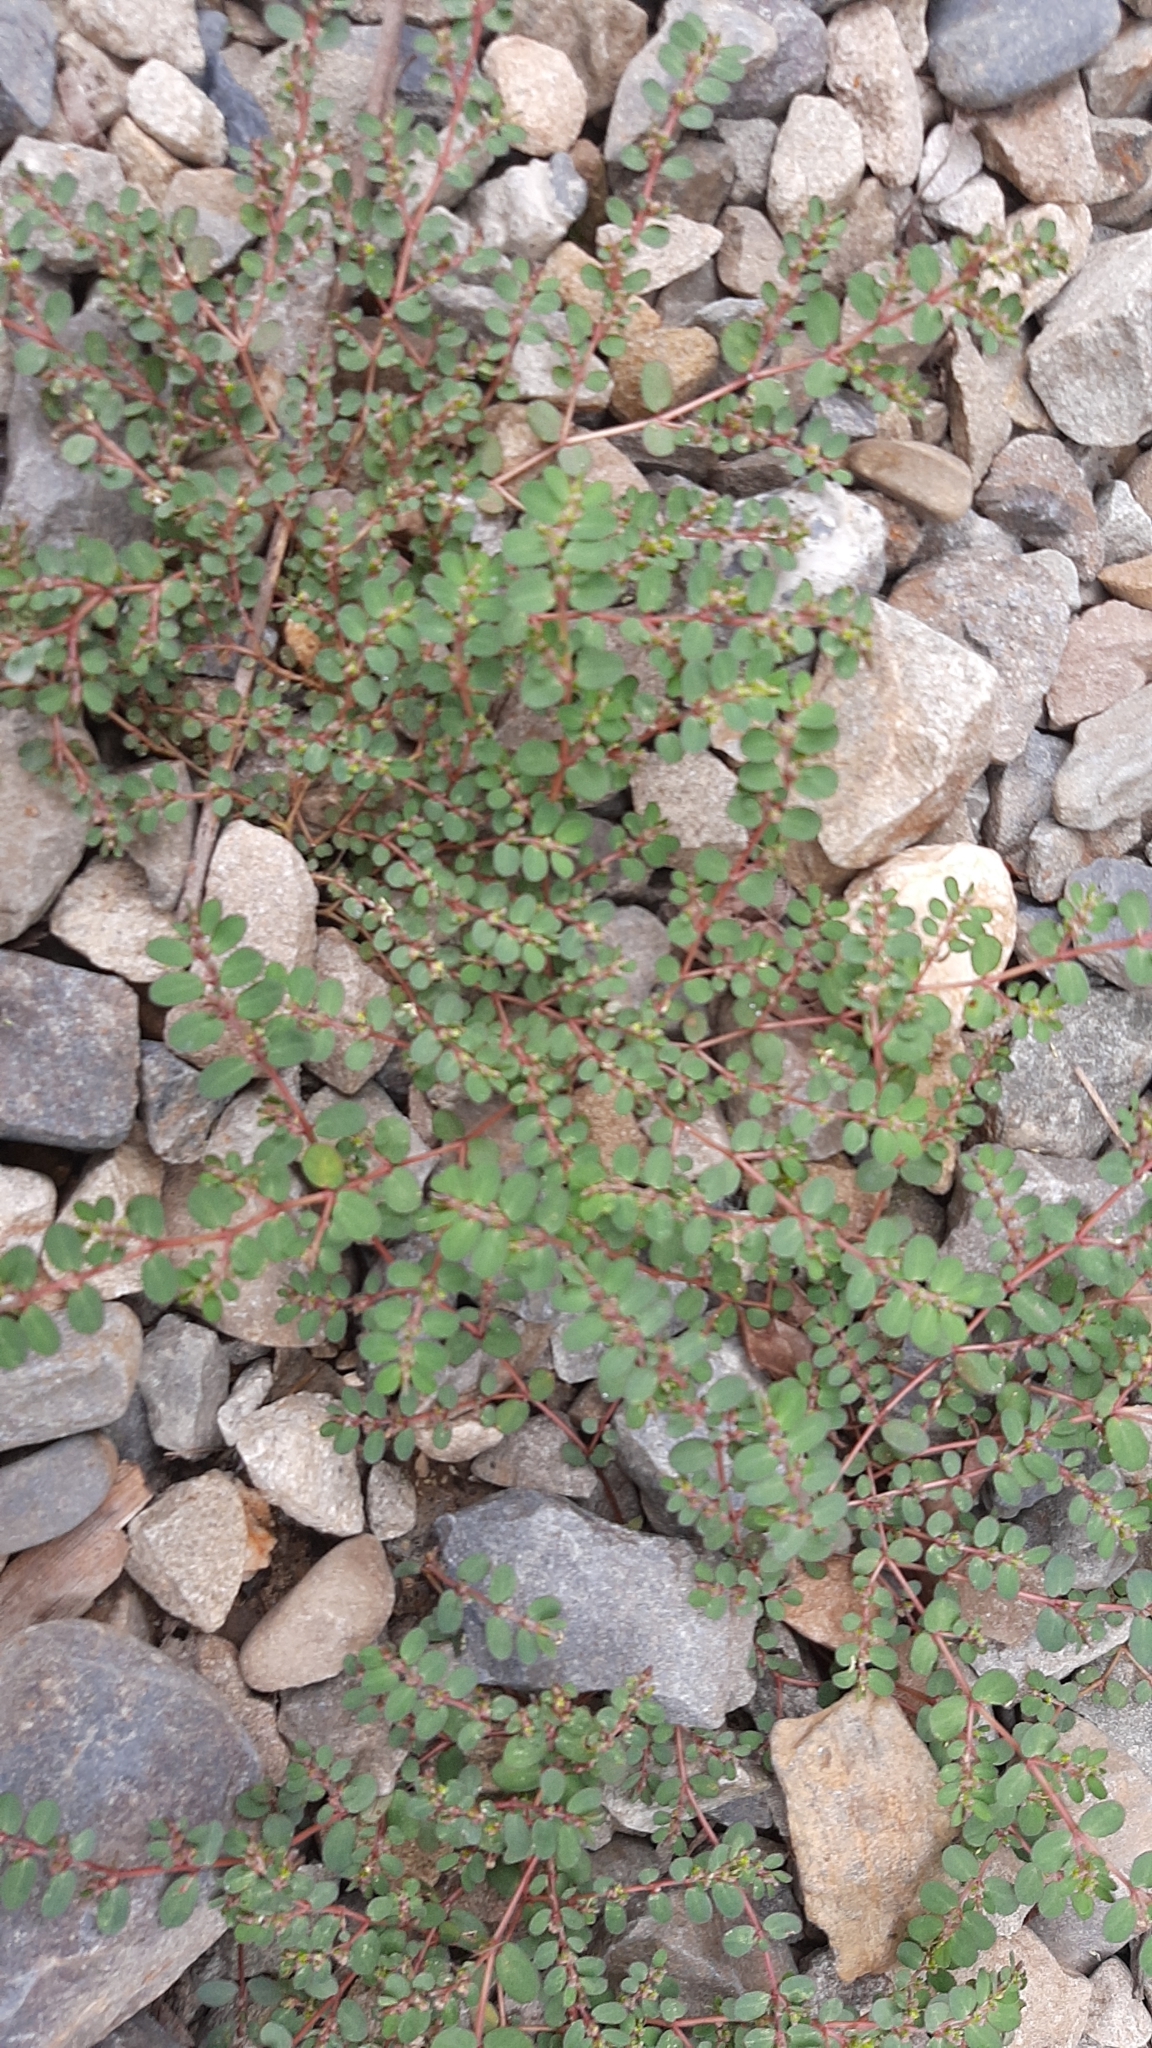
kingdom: Plantae
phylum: Tracheophyta
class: Magnoliopsida
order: Malpighiales
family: Euphorbiaceae
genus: Euphorbia
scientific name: Euphorbia prostrata
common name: Prostrate sandmat
